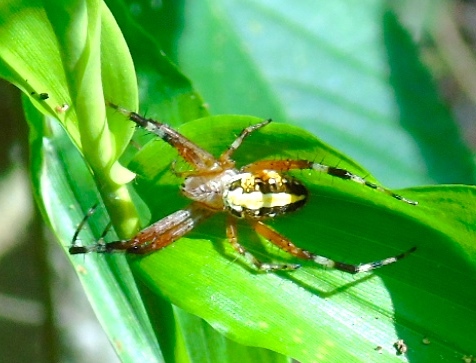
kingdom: Animalia
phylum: Arthropoda
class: Arachnida
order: Araneae
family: Araneidae
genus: Neoscona
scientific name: Neoscona
